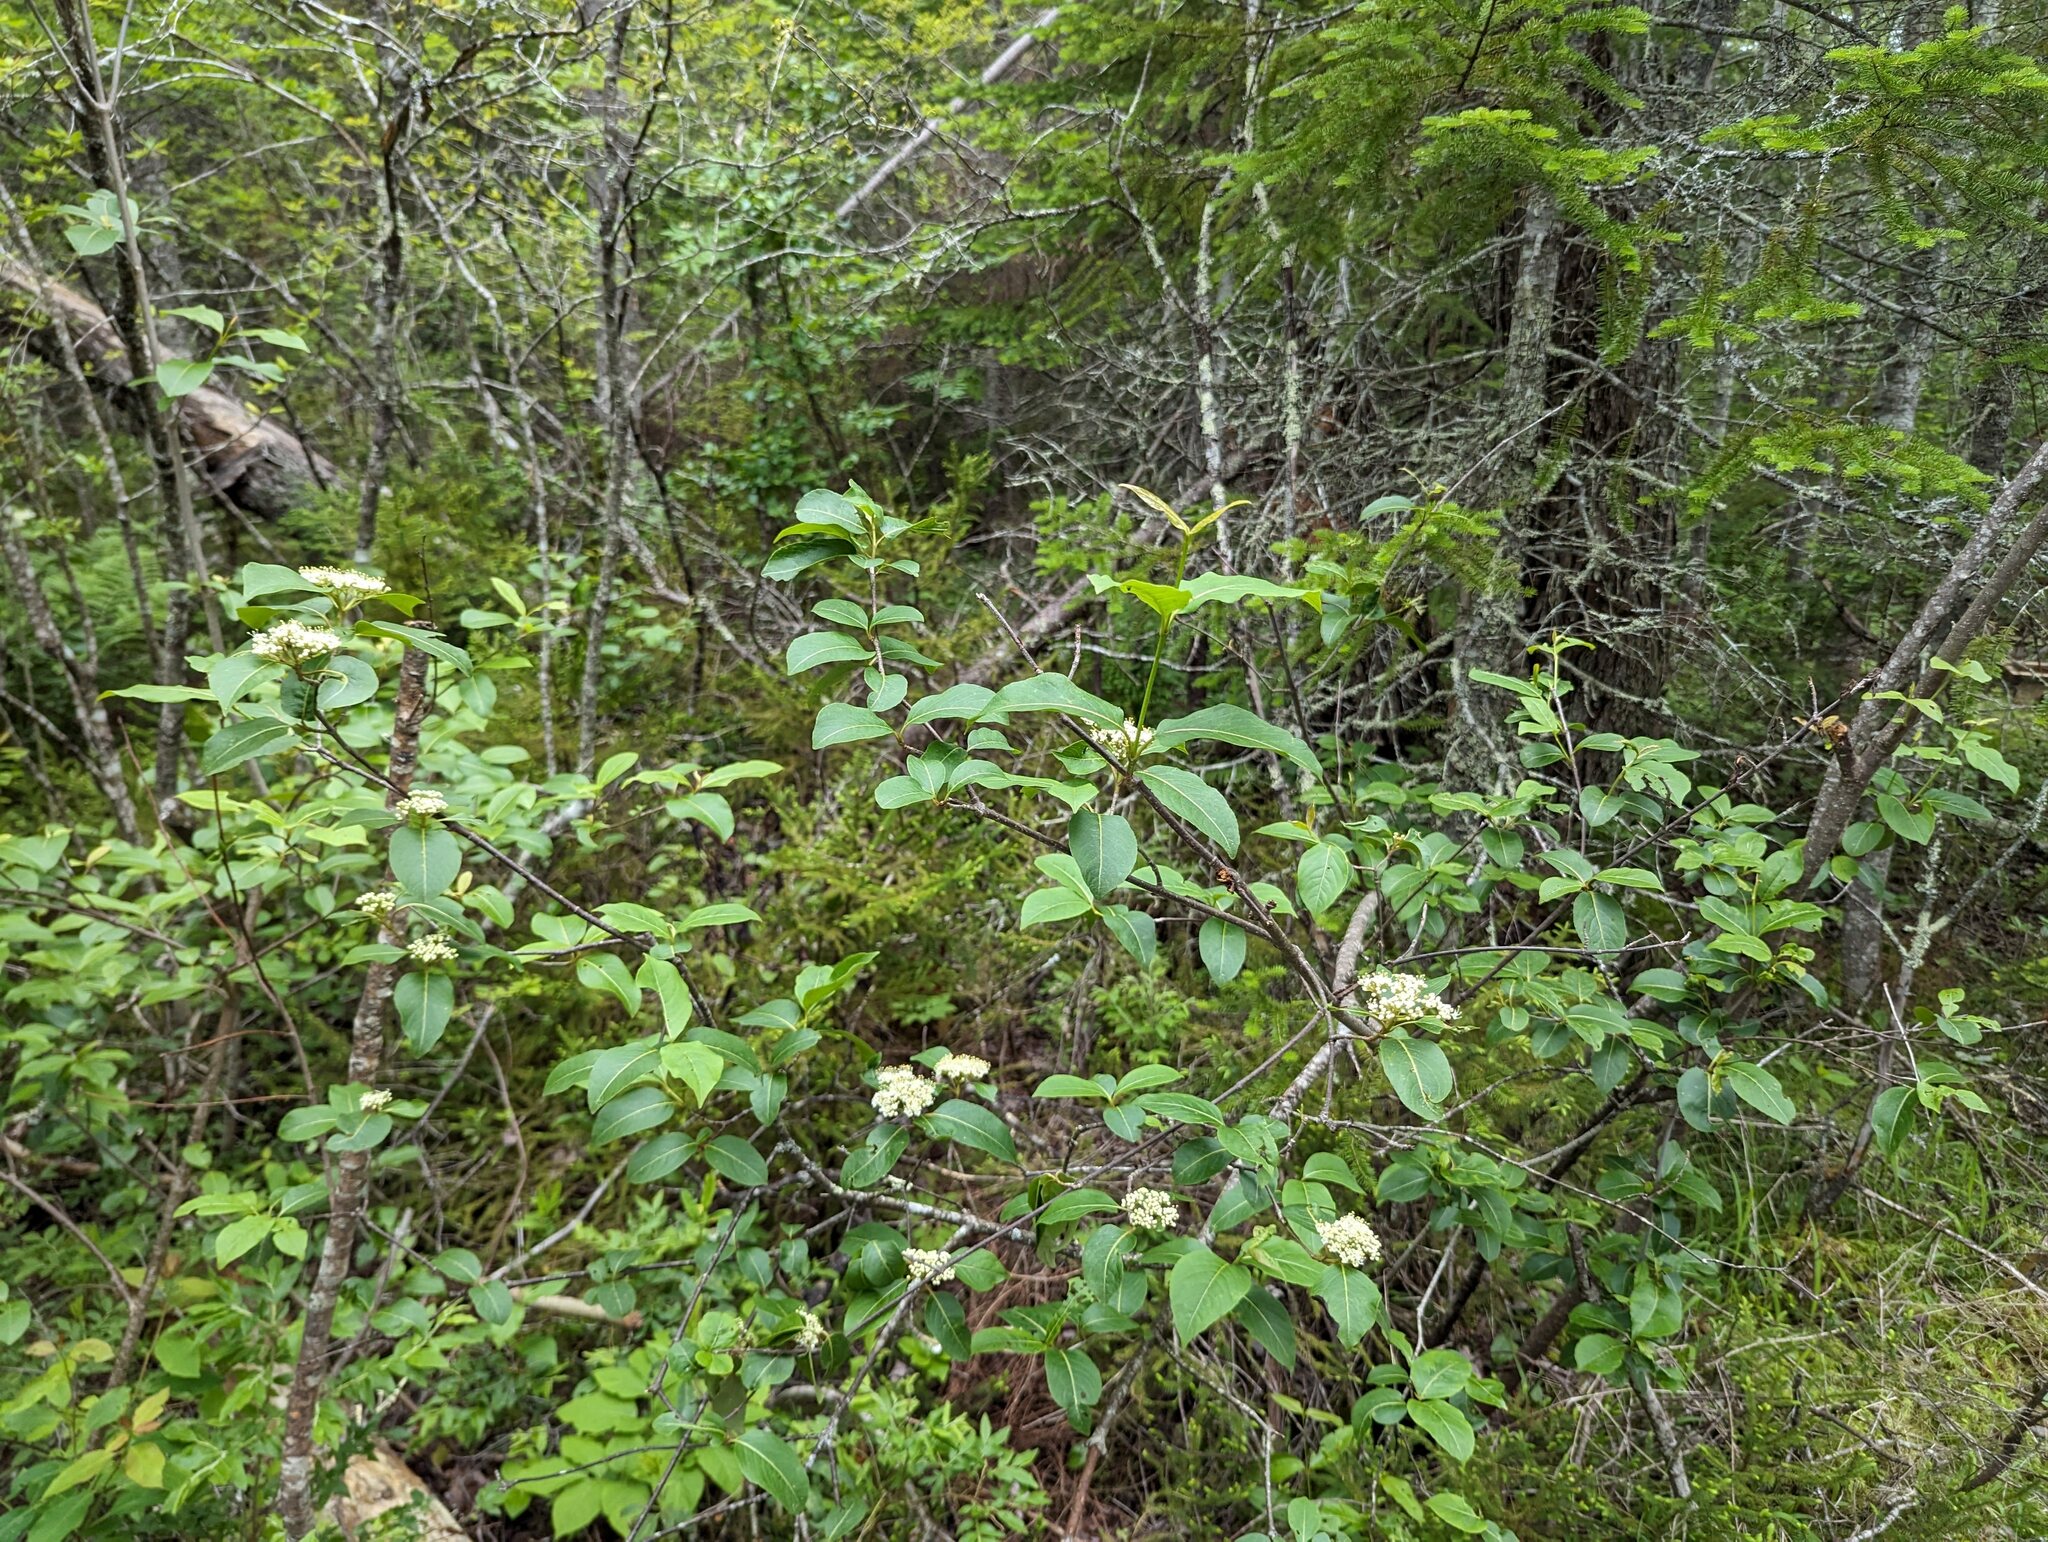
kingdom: Plantae
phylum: Tracheophyta
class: Magnoliopsida
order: Dipsacales
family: Viburnaceae
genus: Viburnum
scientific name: Viburnum cassinoides
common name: Swamp haw
